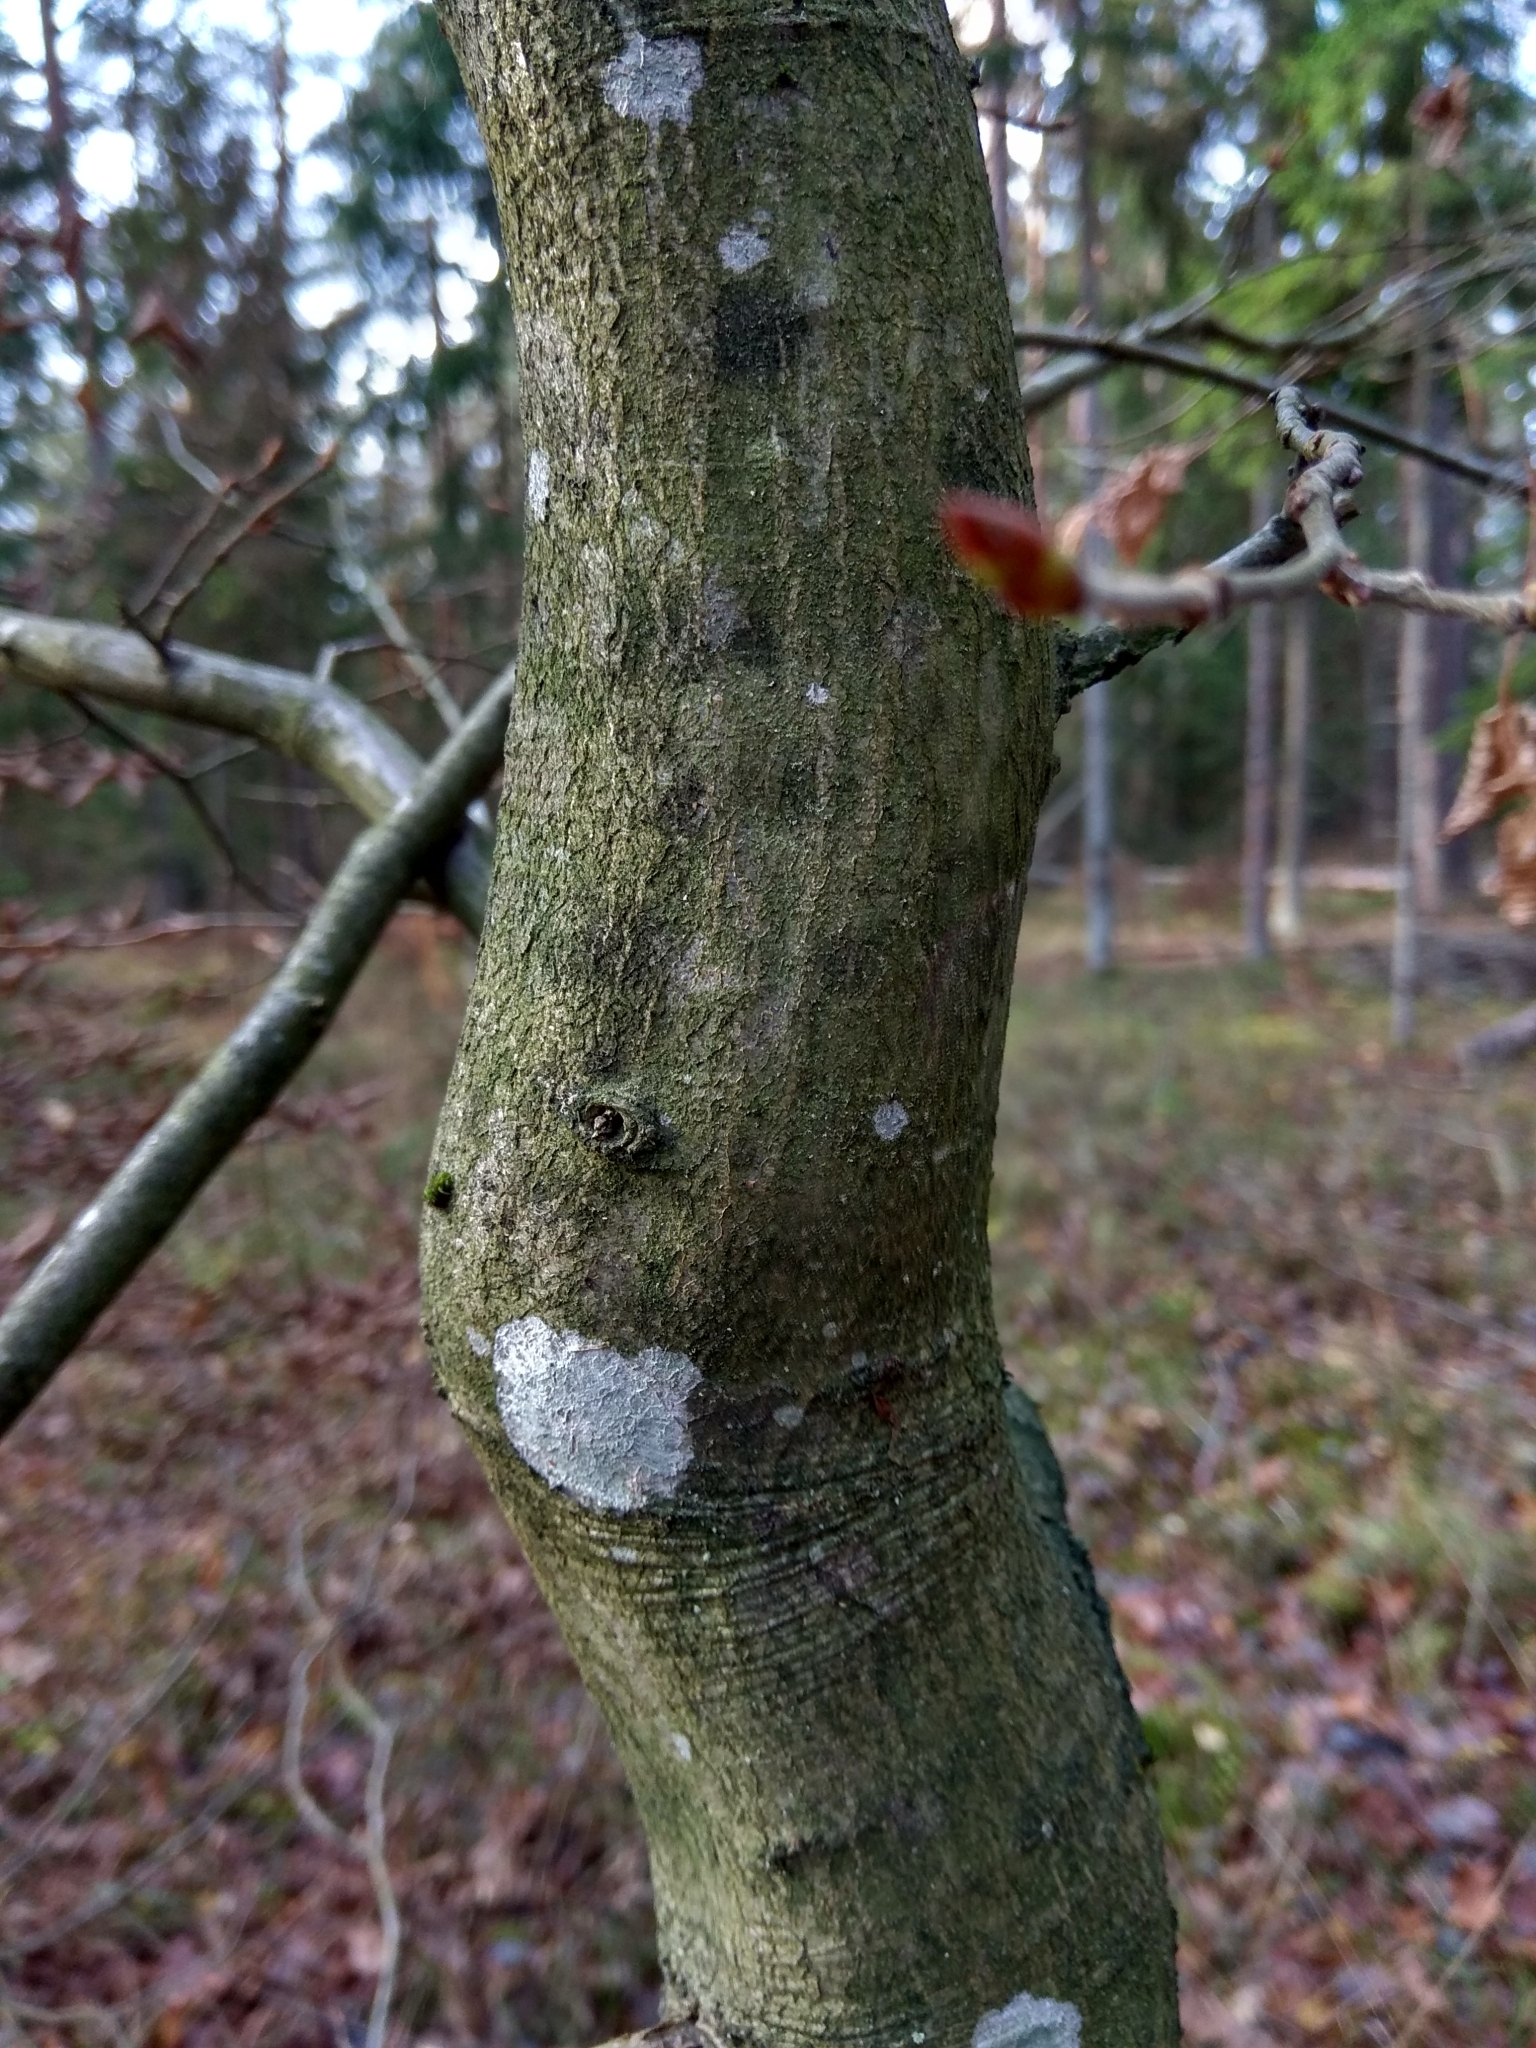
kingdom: Plantae
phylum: Tracheophyta
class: Magnoliopsida
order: Fagales
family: Betulaceae
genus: Carpinus
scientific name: Carpinus betulus
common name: Hornbeam
